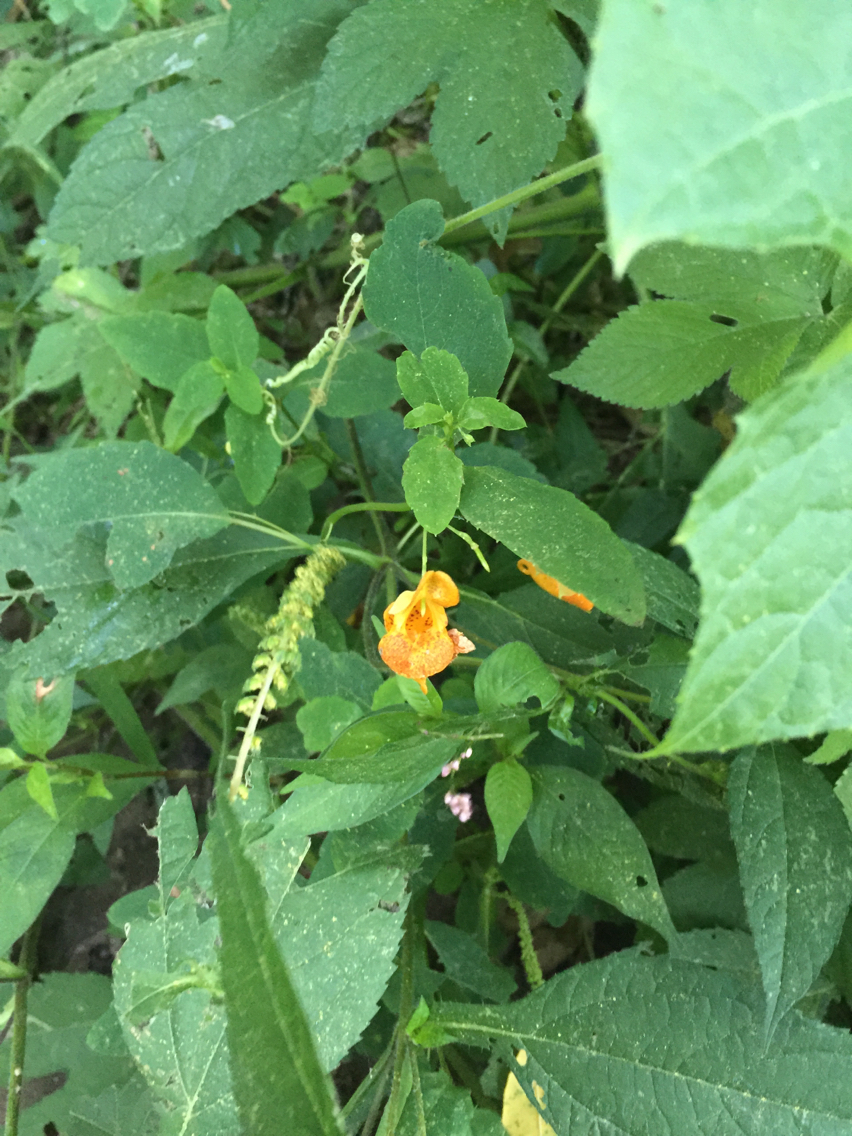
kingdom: Plantae
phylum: Tracheophyta
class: Magnoliopsida
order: Ericales
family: Balsaminaceae
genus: Impatiens
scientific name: Impatiens capensis
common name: Orange balsam
